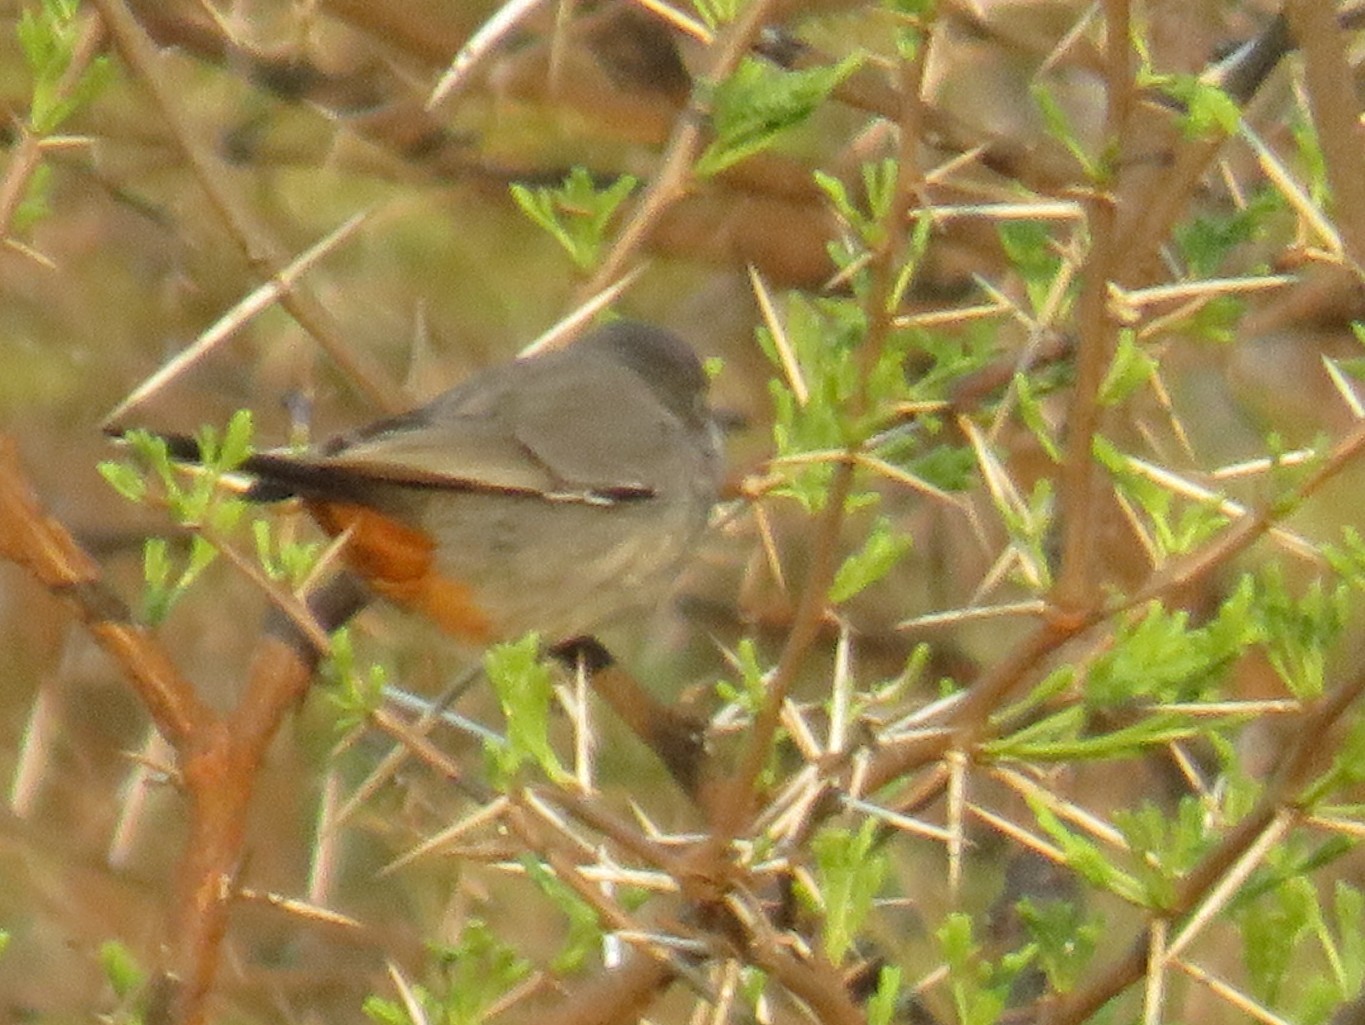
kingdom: Animalia
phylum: Chordata
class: Aves
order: Passeriformes
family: Sylviidae
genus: Curruca
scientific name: Curruca subcoerulea
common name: Chestnut-vented warbler
